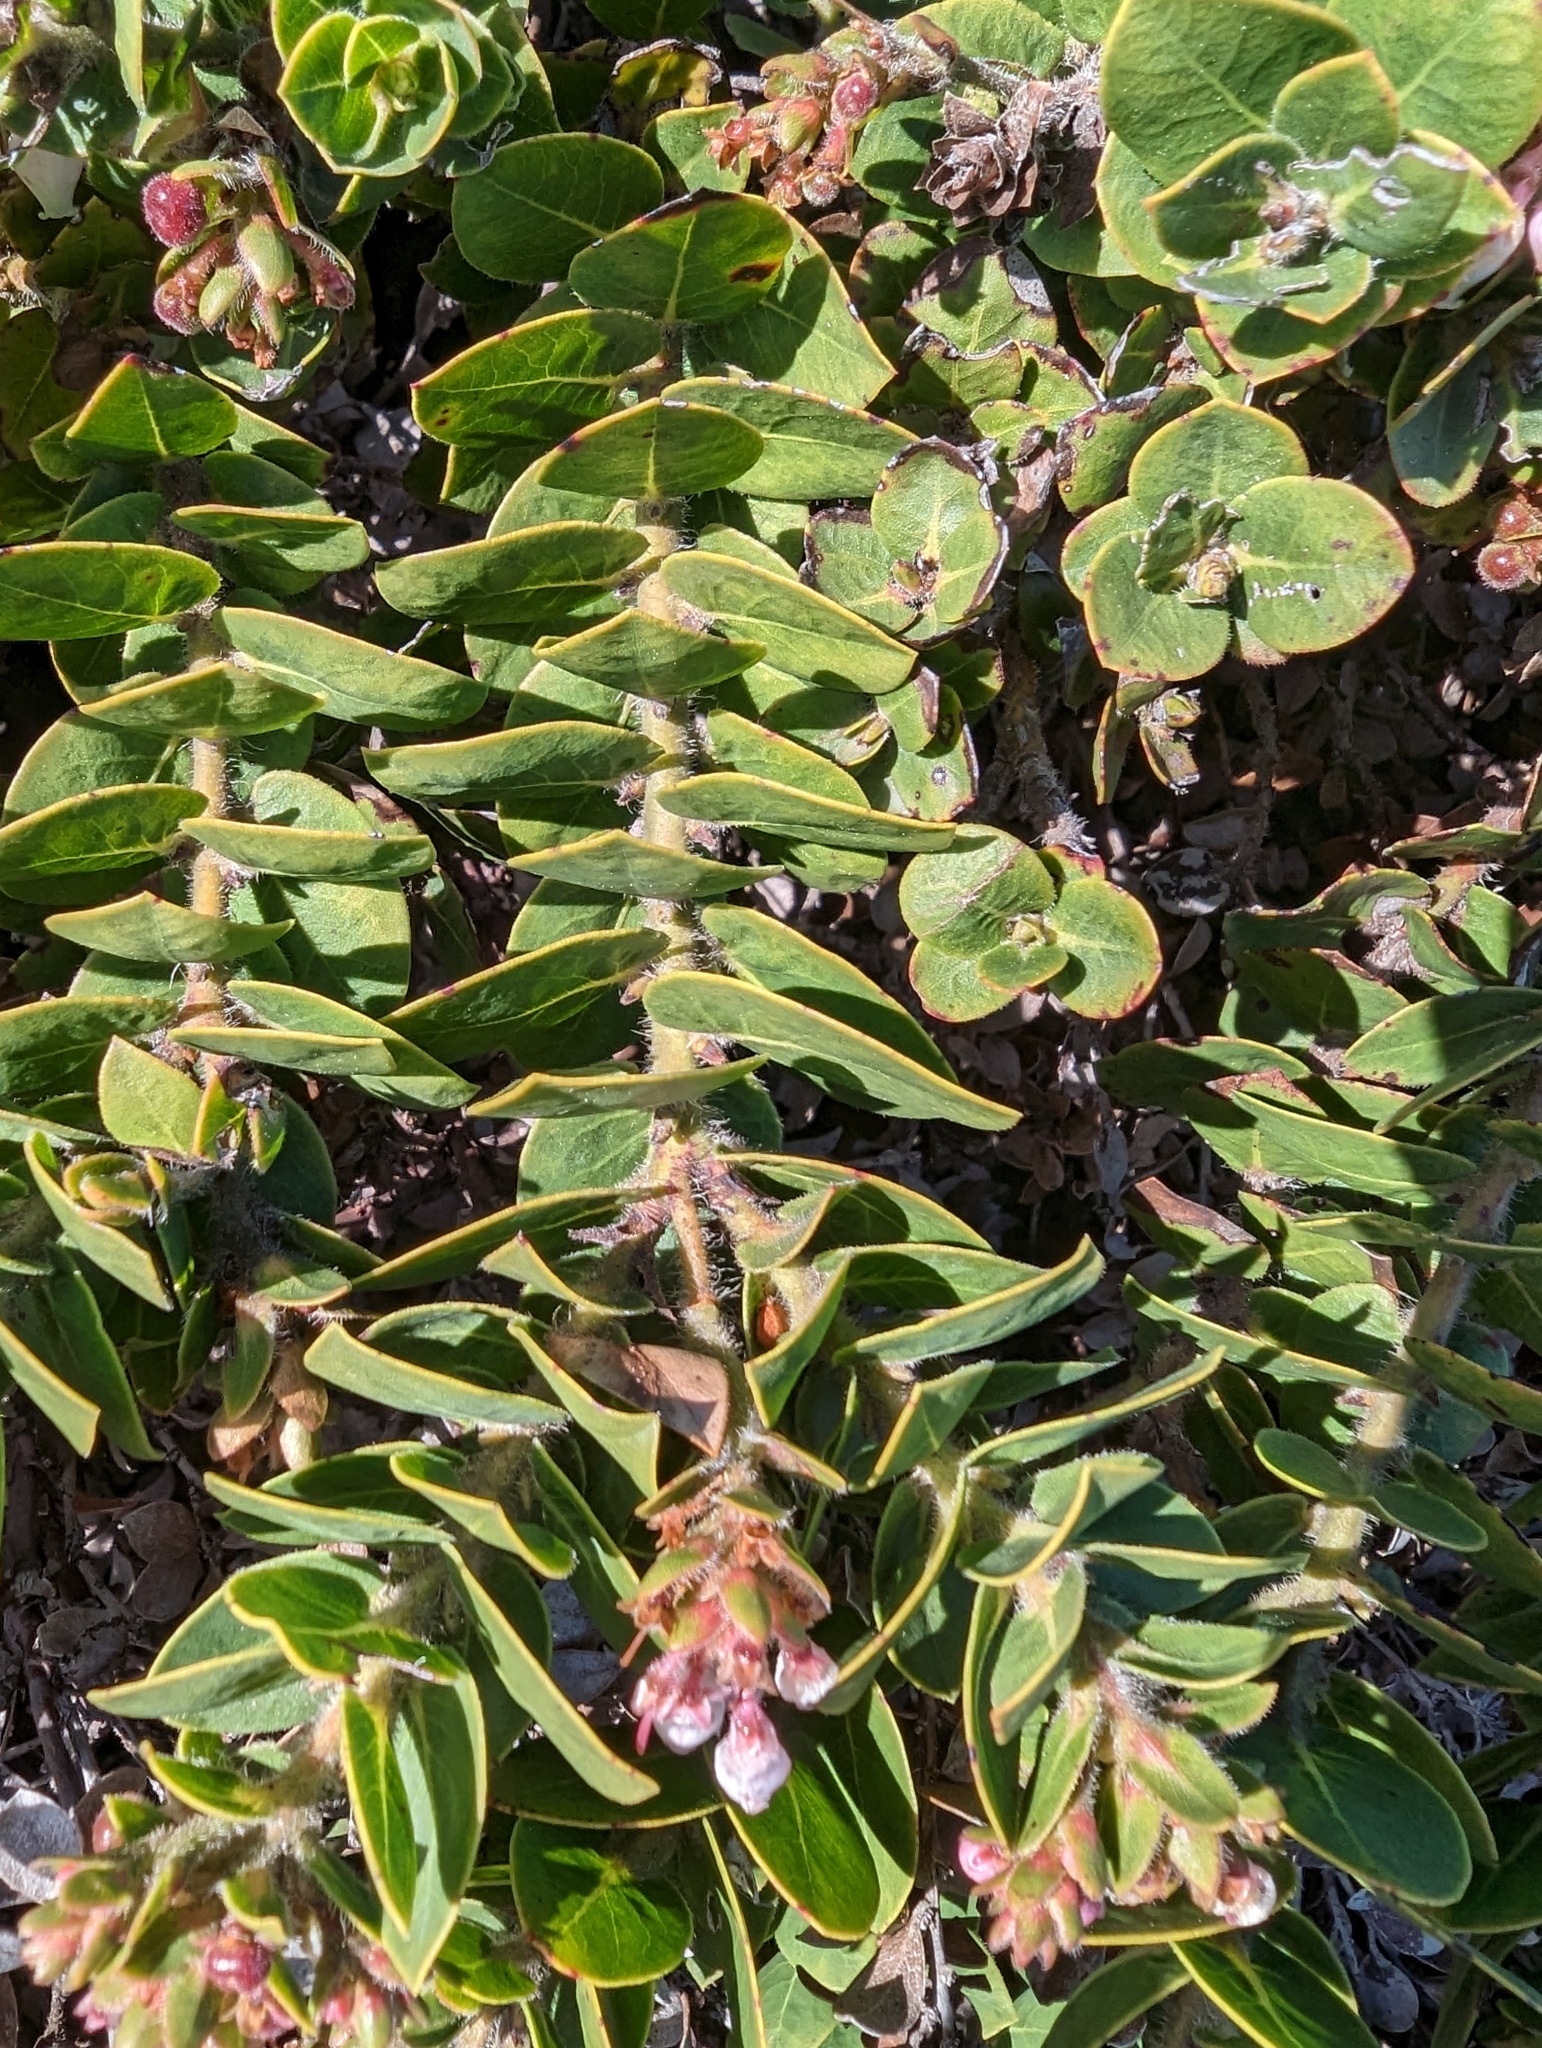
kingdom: Plantae
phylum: Tracheophyta
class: Magnoliopsida
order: Ericales
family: Ericaceae
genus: Arctostaphylos
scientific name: Arctostaphylos imbricata
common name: San bruno mountain manzanita
